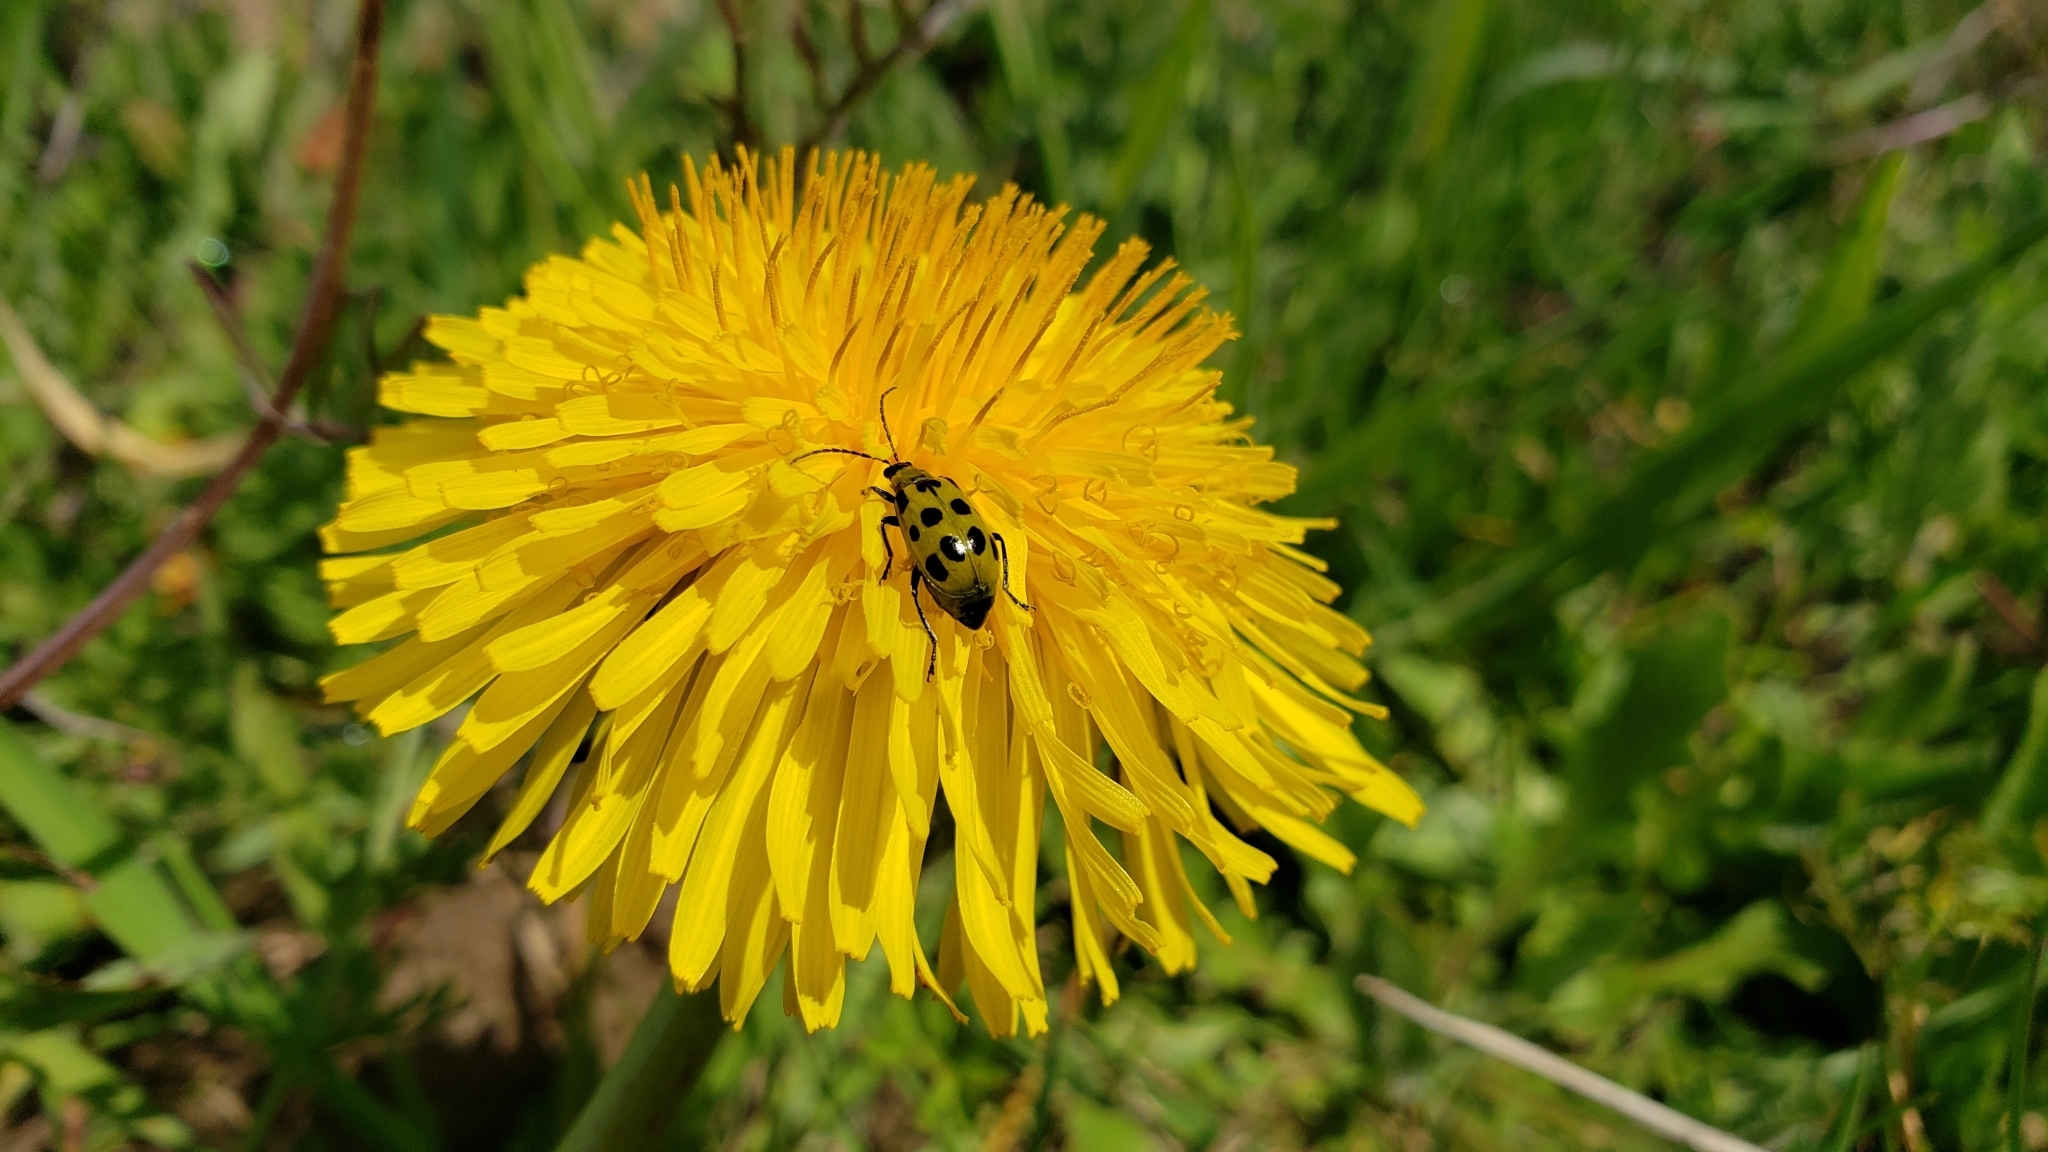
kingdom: Animalia
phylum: Arthropoda
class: Insecta
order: Coleoptera
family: Chrysomelidae
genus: Diabrotica
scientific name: Diabrotica undecimpunctata
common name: Spotted cucumber beetle
